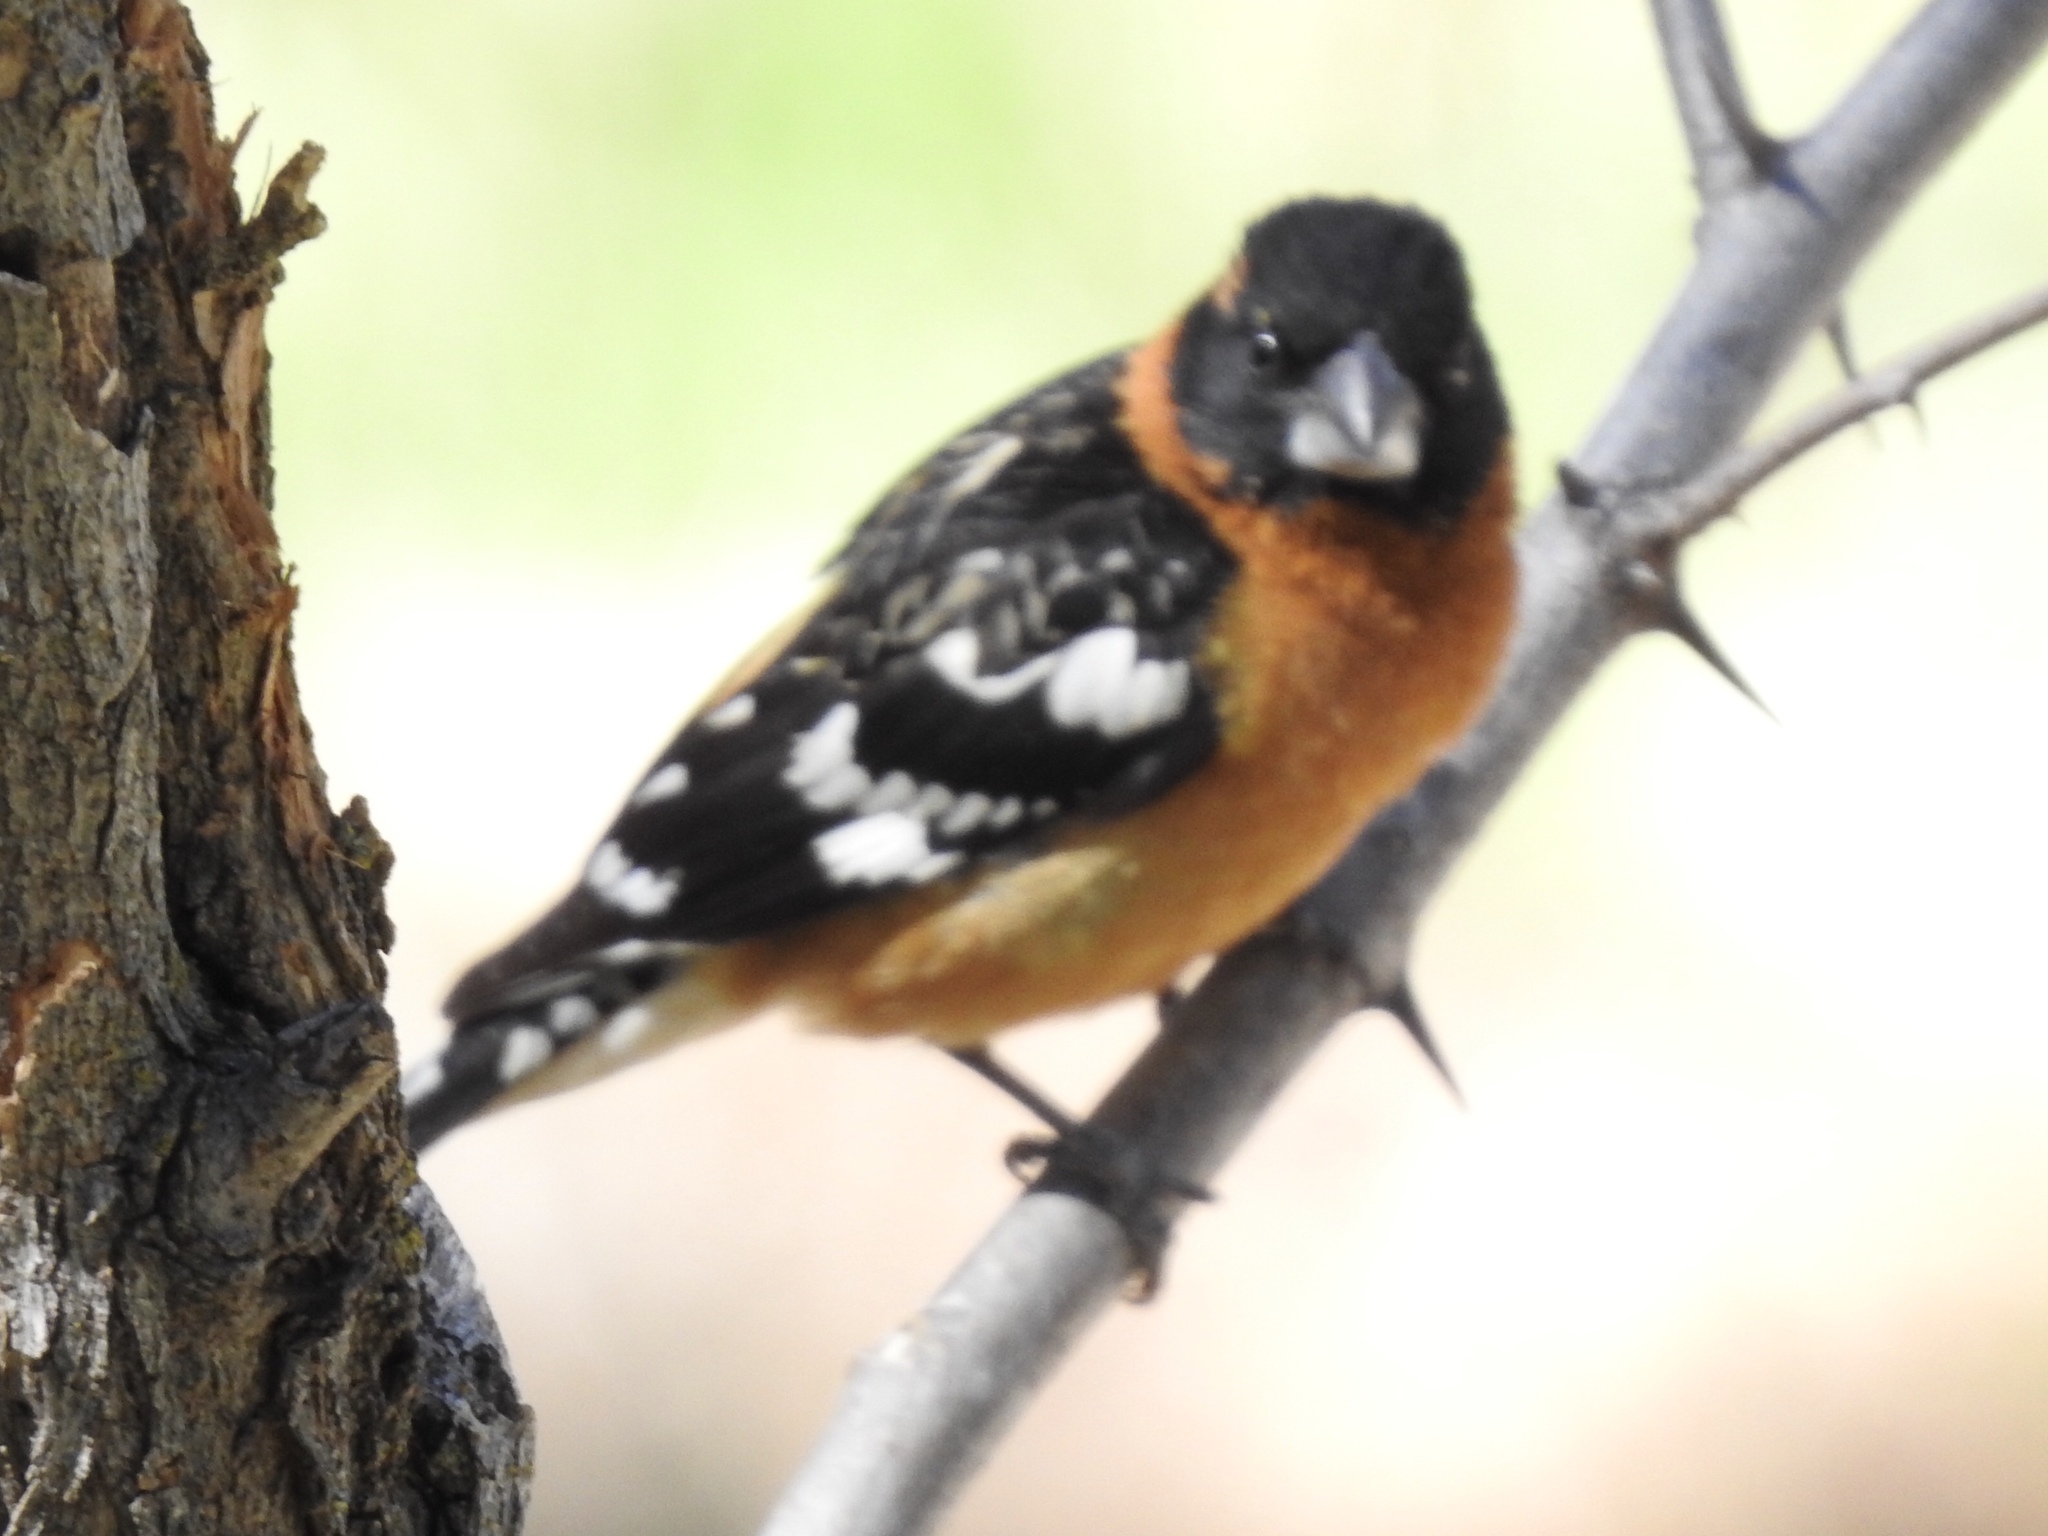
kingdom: Animalia
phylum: Chordata
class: Aves
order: Passeriformes
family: Cardinalidae
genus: Pheucticus
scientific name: Pheucticus melanocephalus
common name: Black-headed grosbeak
